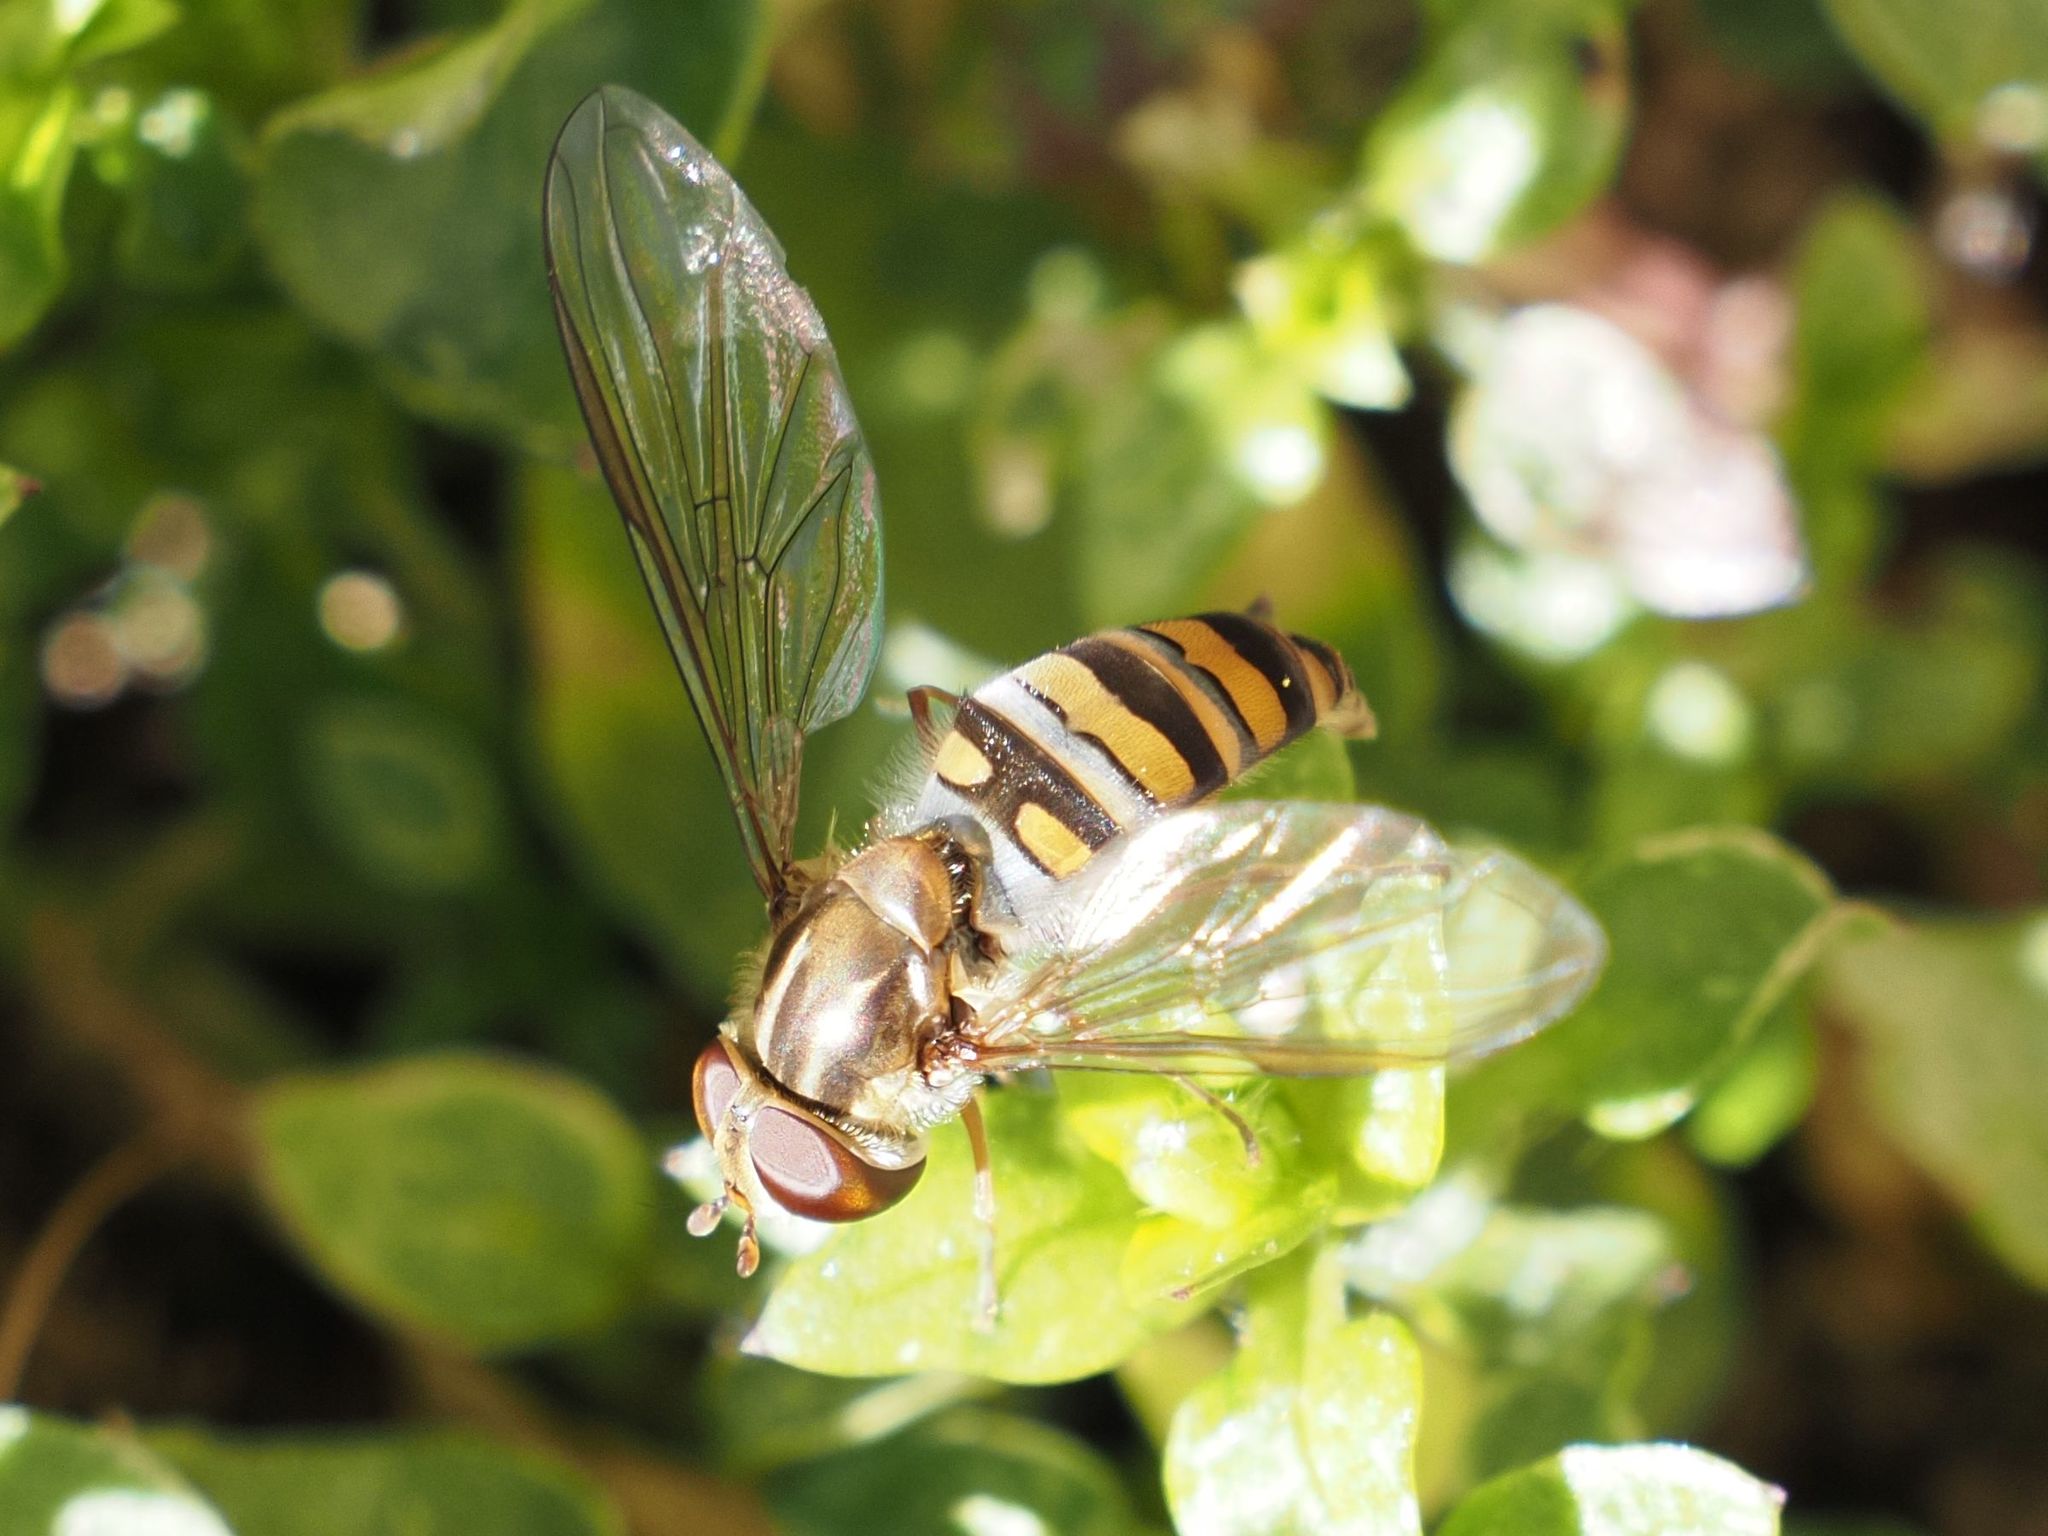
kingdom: Animalia
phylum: Arthropoda
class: Insecta
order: Diptera
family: Syrphidae
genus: Episyrphus
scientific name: Episyrphus balteatus
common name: Marmalade hoverfly
